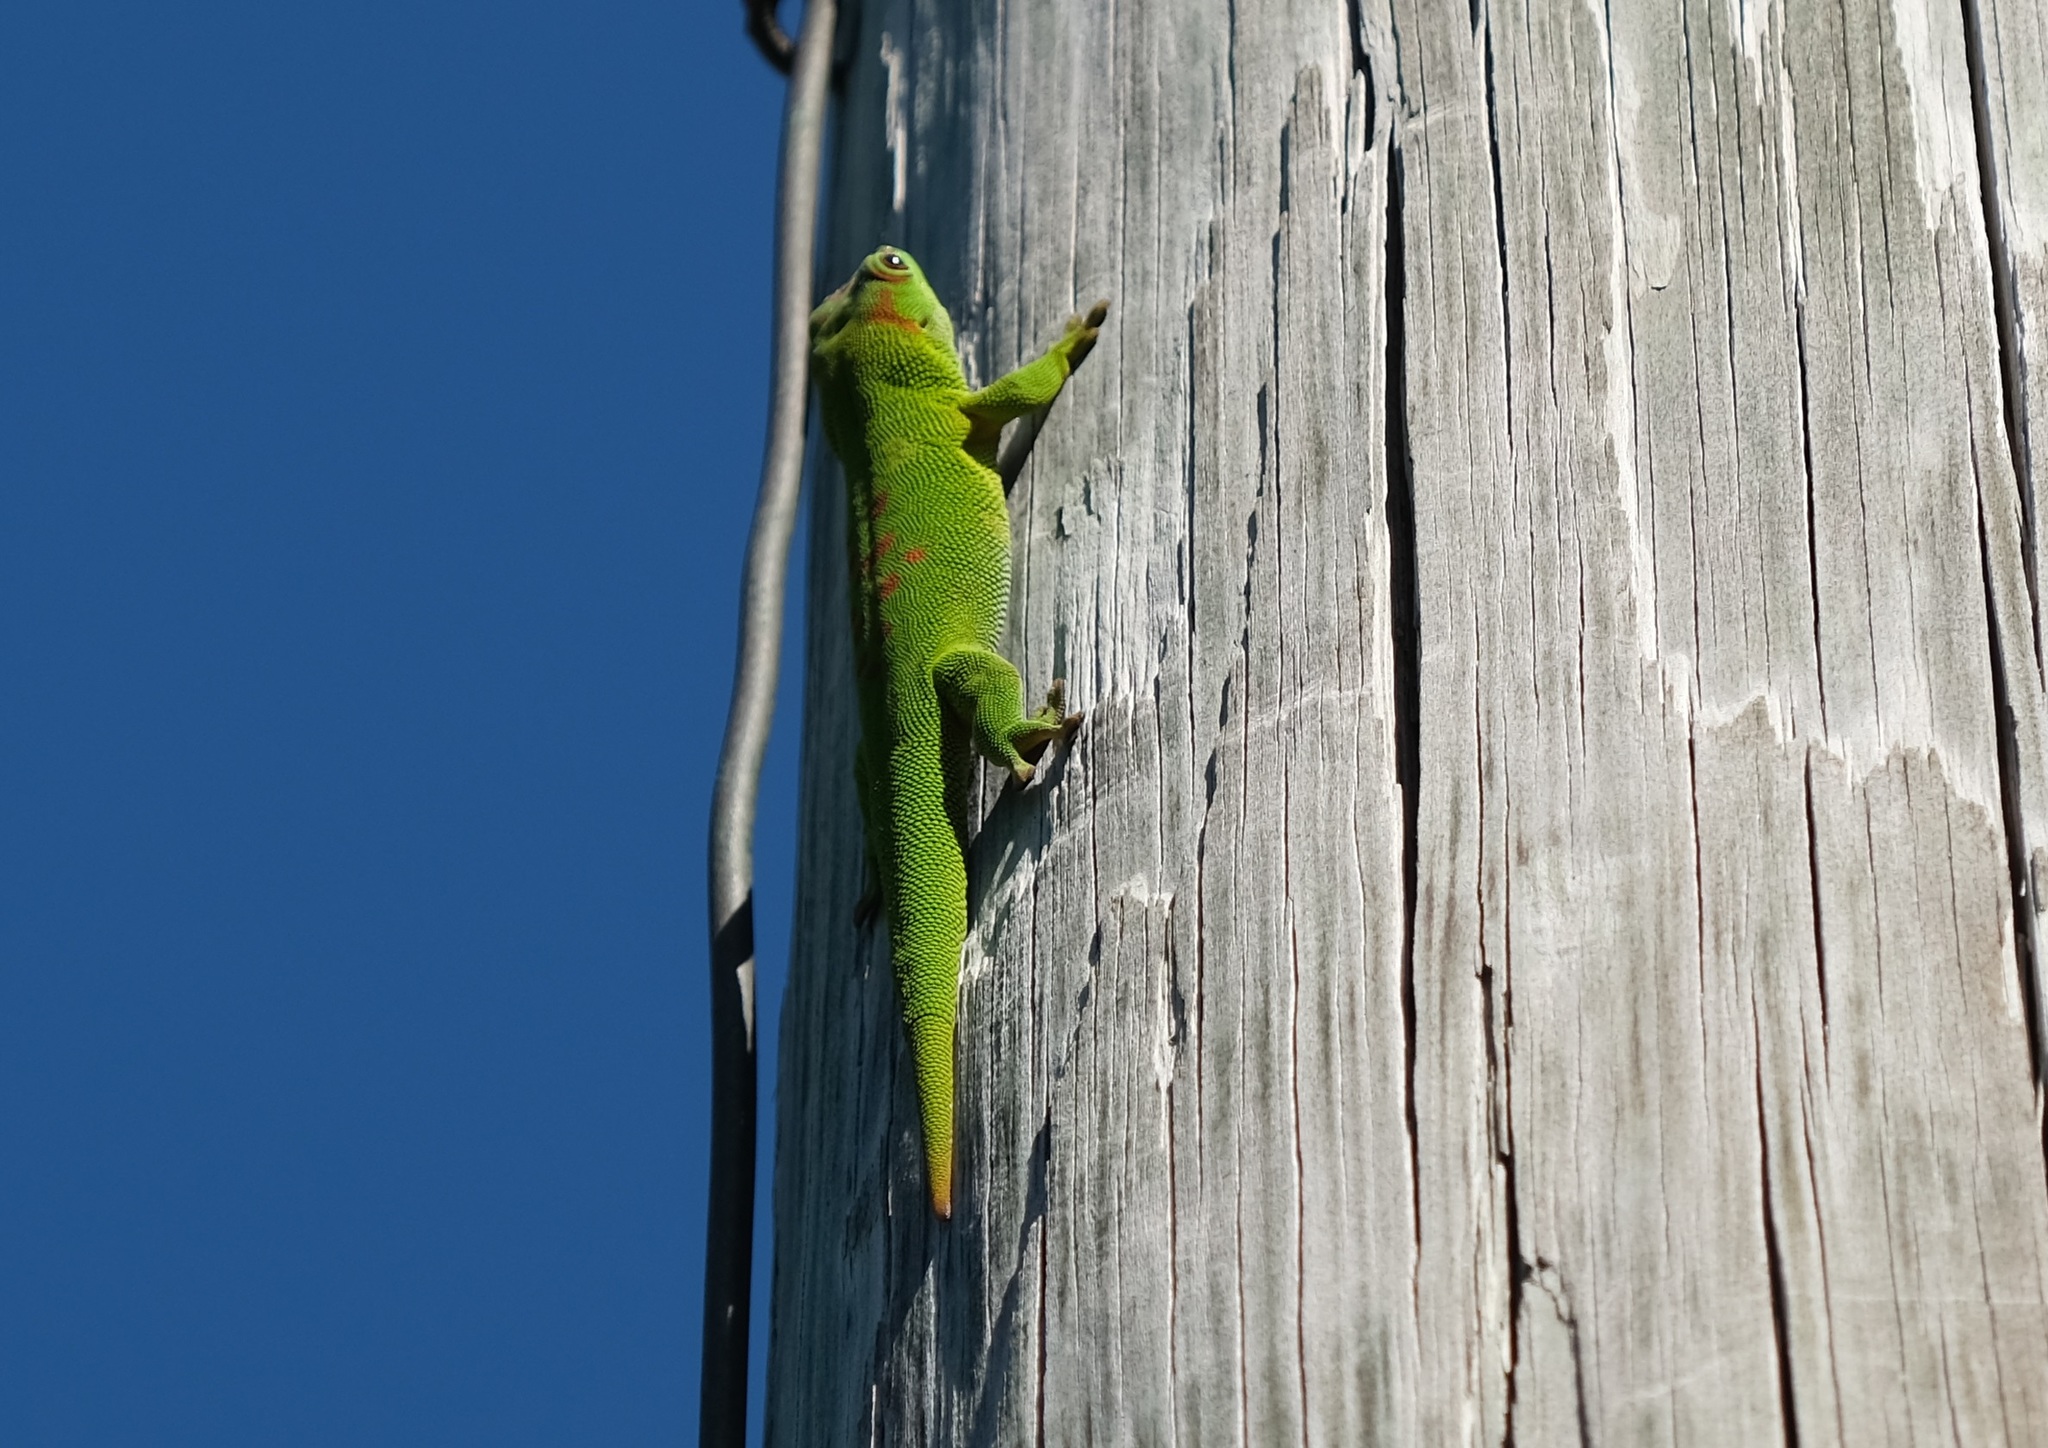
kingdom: Animalia
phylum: Chordata
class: Squamata
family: Gekkonidae
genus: Phelsuma
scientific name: Phelsuma grandis
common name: Madagascar giant day gecko
